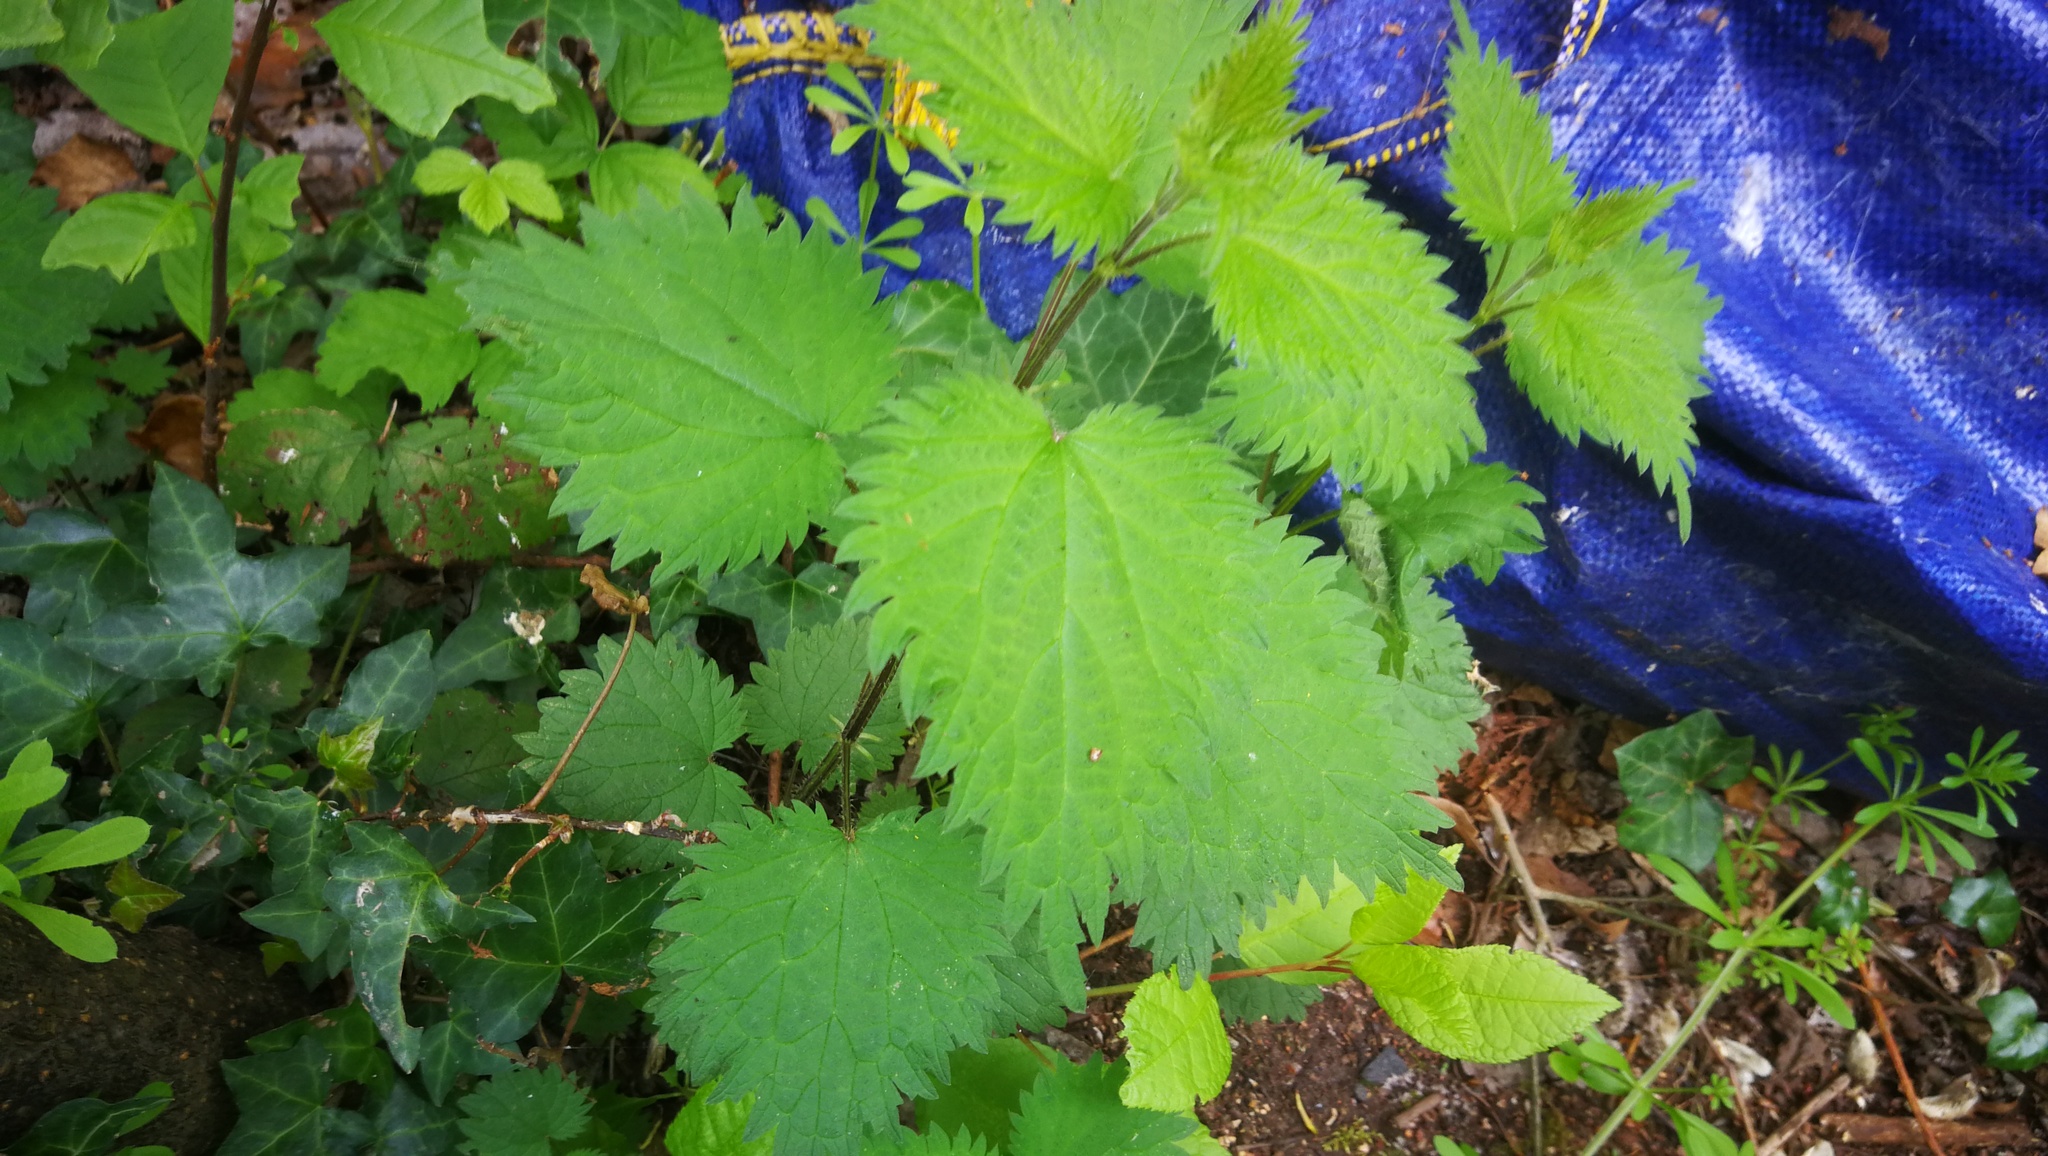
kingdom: Plantae
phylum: Tracheophyta
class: Magnoliopsida
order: Rosales
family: Urticaceae
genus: Urtica
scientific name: Urtica dioica
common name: Common nettle
